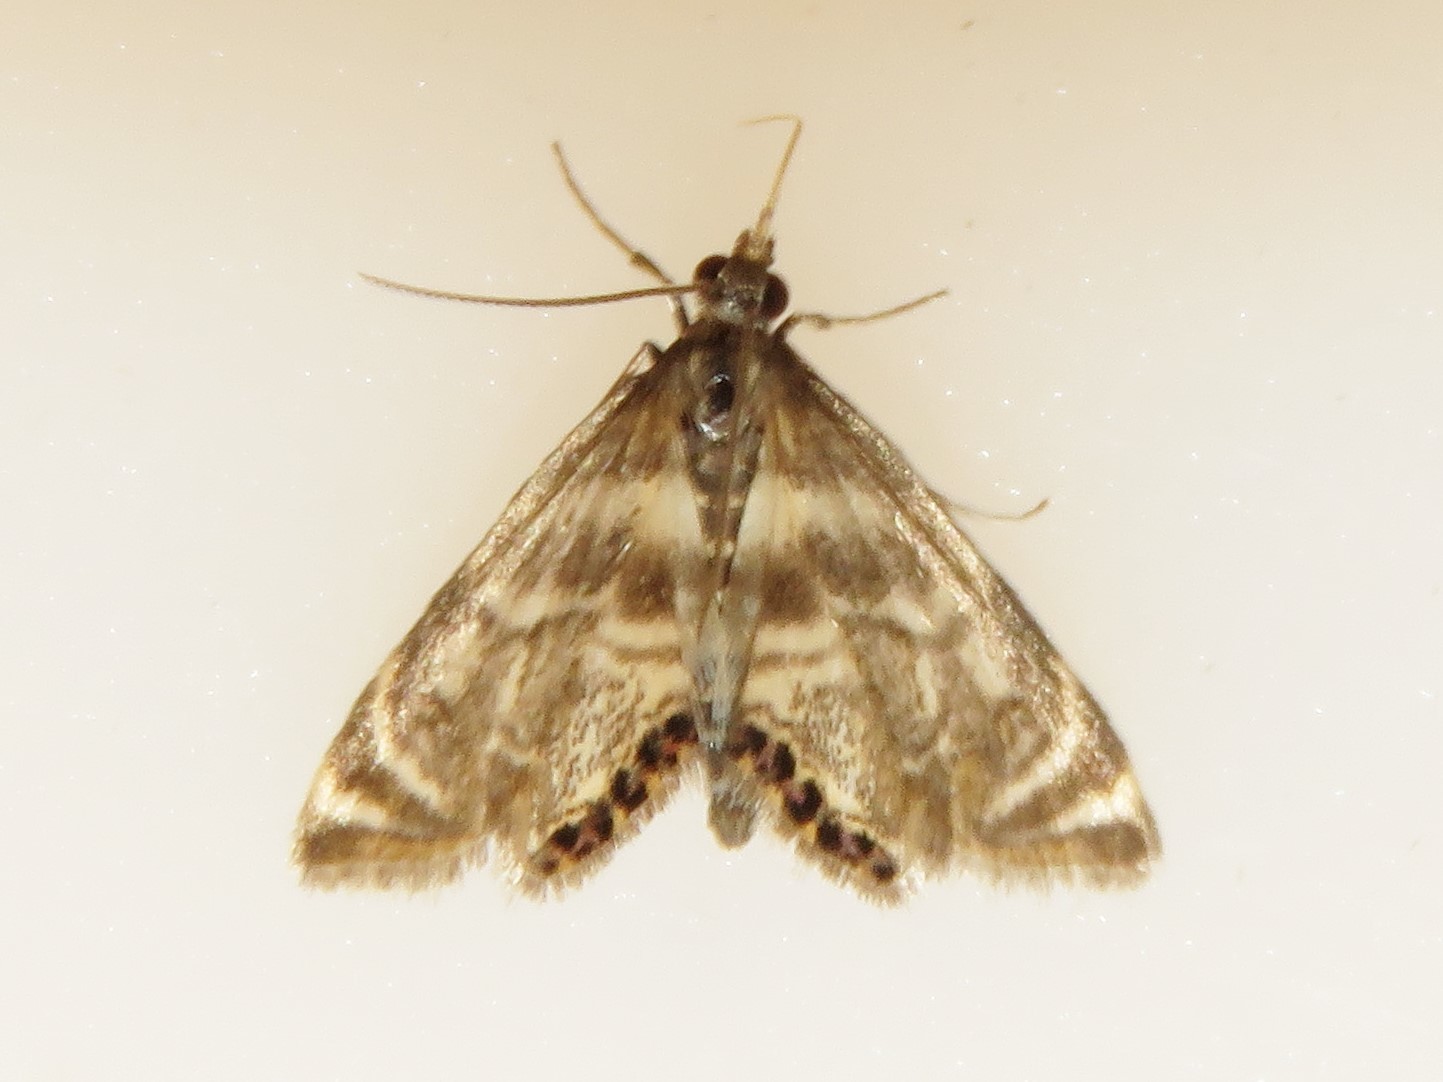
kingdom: Animalia
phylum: Arthropoda
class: Insecta
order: Lepidoptera
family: Crambidae
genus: Petrophila
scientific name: Petrophila canadensis
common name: Canadian petrophila
